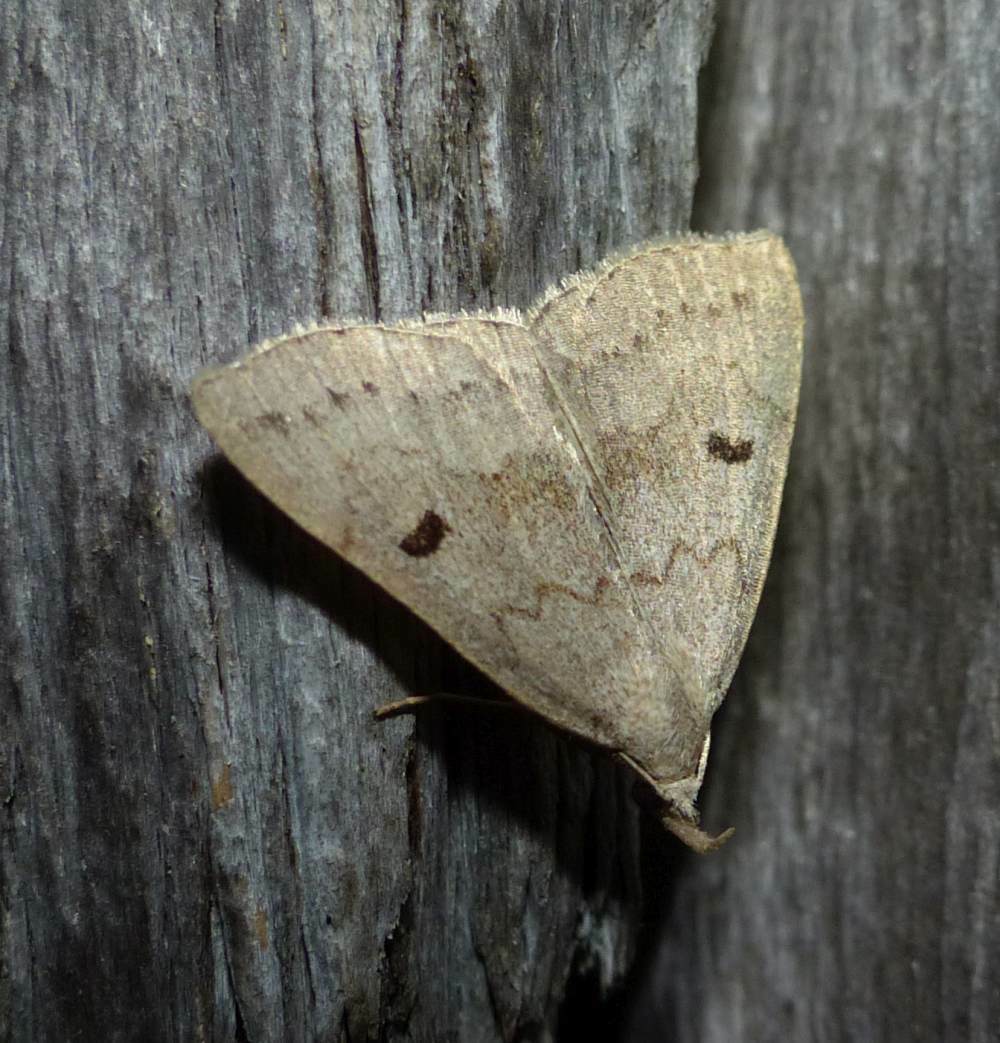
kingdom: Animalia
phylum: Arthropoda
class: Insecta
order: Lepidoptera
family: Erebidae
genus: Macrochilo
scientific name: Macrochilo morbidalis
